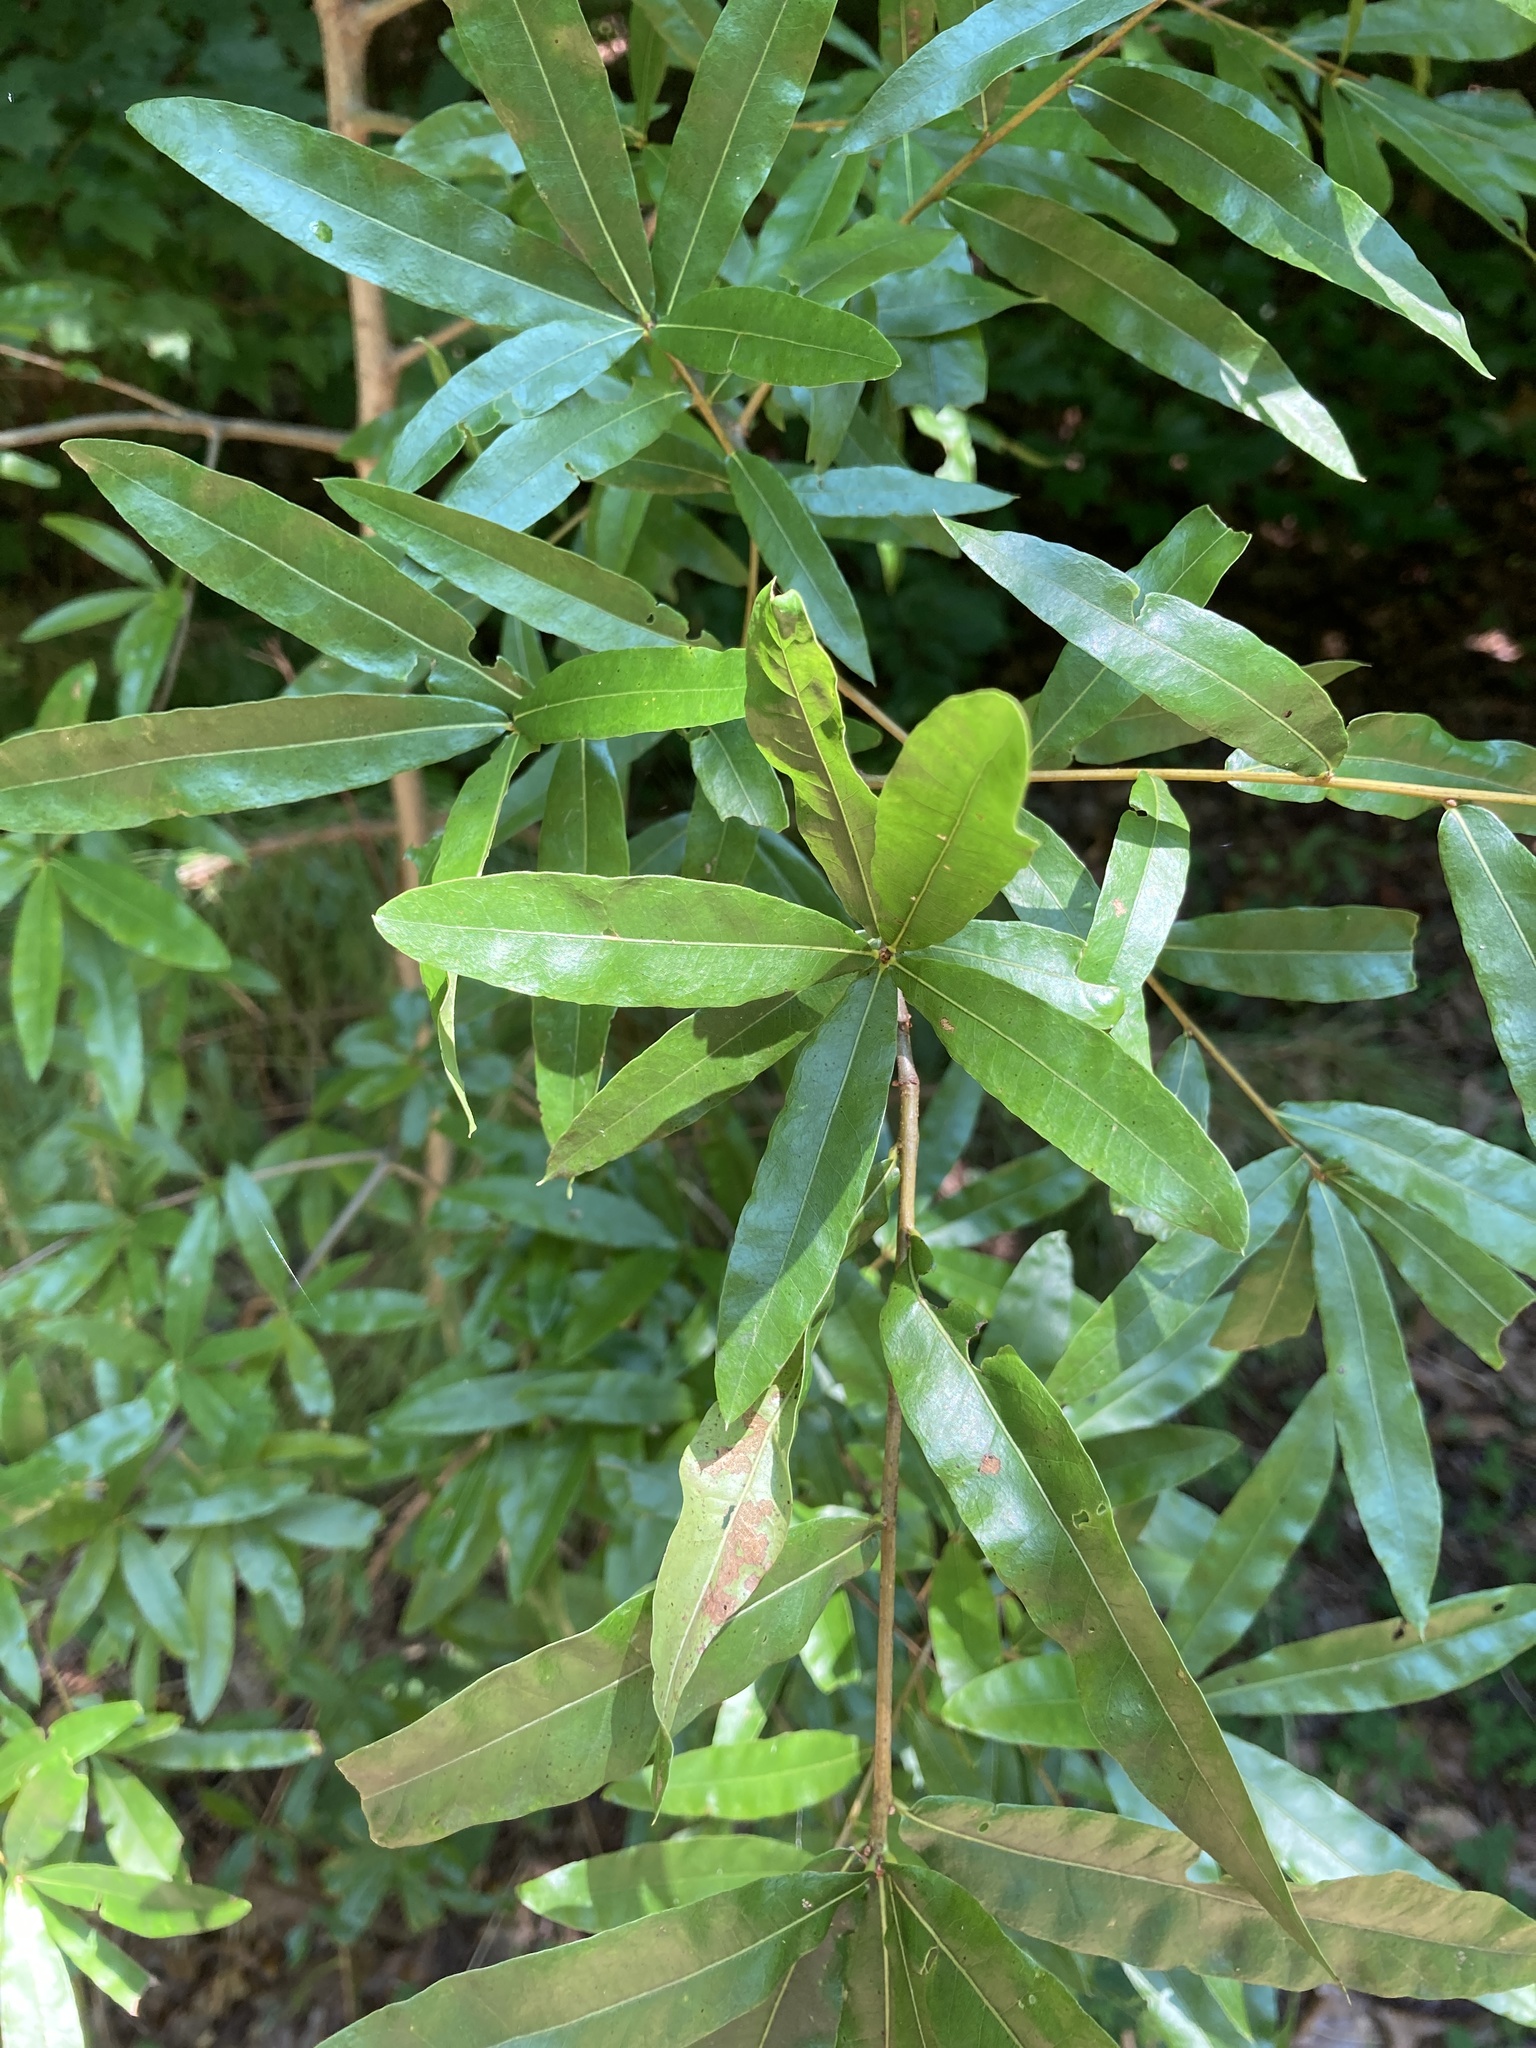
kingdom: Plantae
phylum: Tracheophyta
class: Magnoliopsida
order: Fagales
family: Fagaceae
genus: Quercus
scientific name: Quercus phellos
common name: Willow oak
